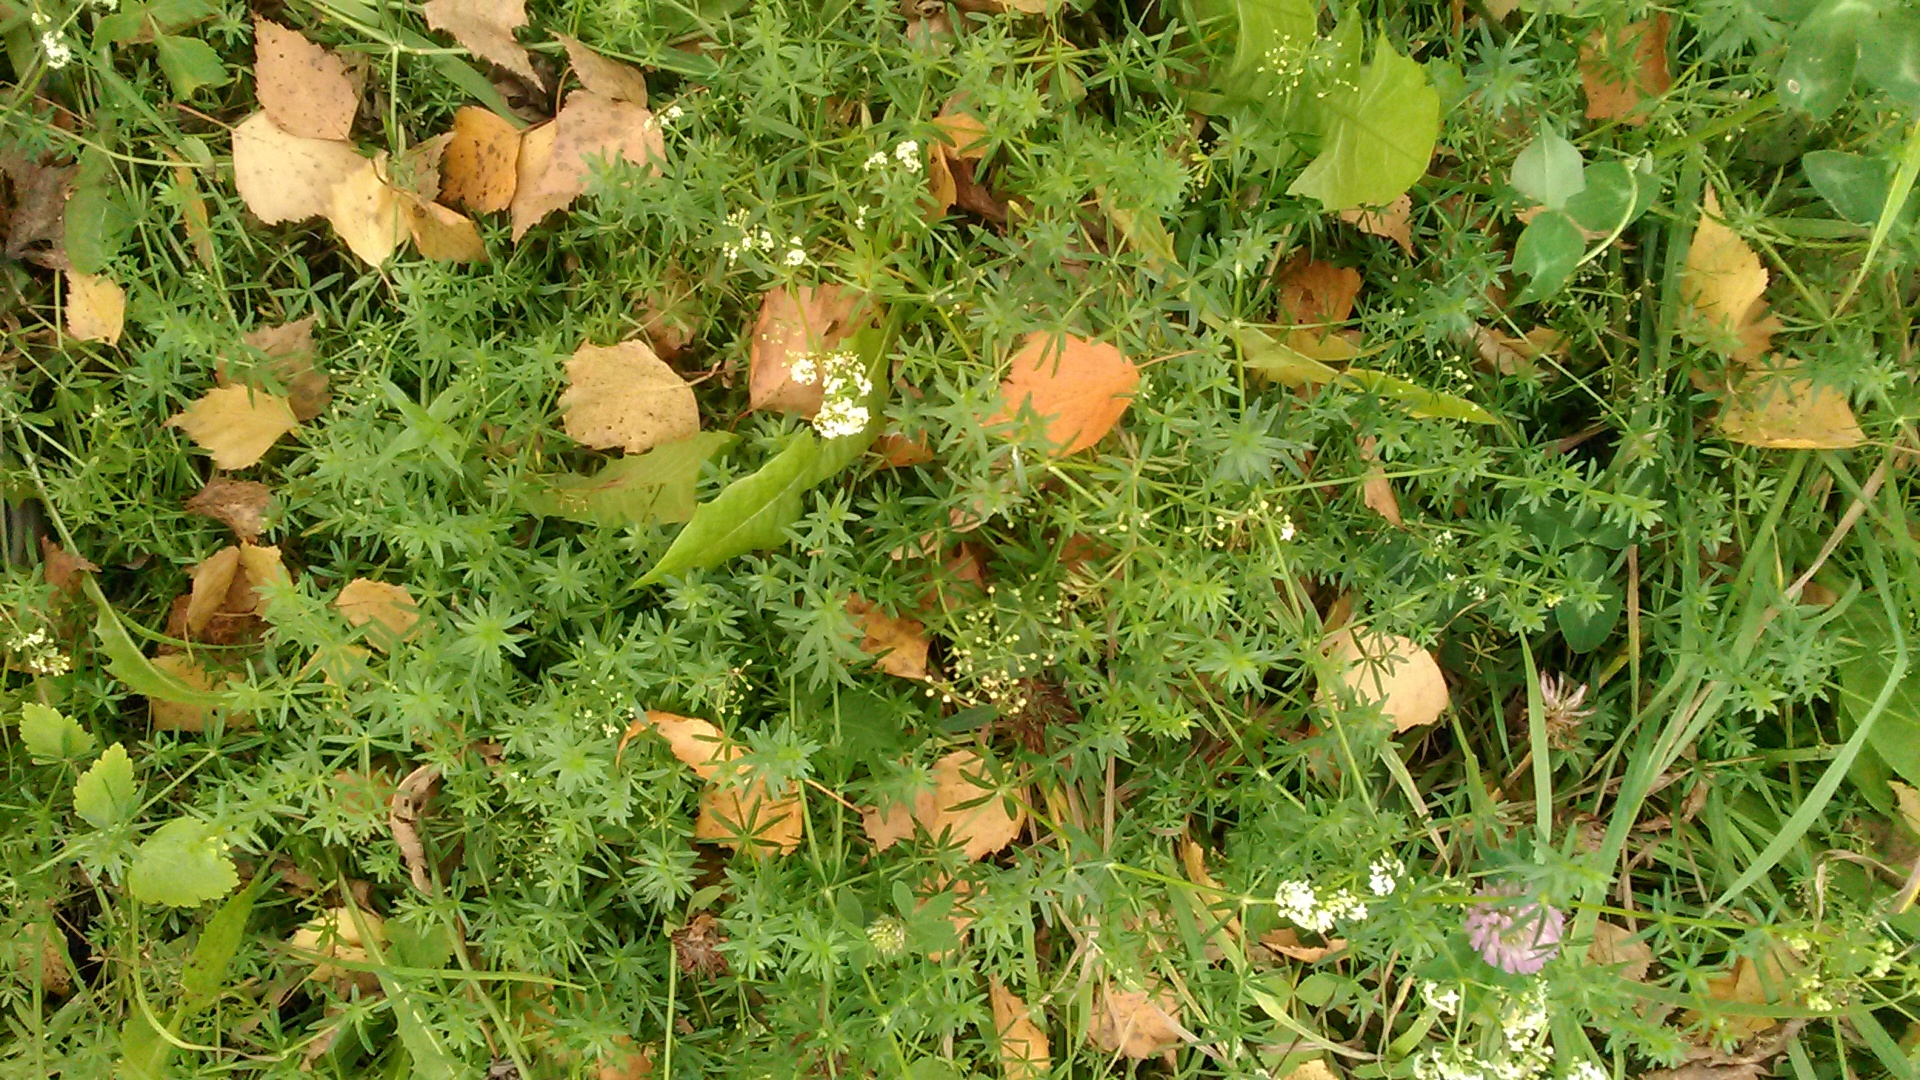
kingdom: Plantae
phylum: Tracheophyta
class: Magnoliopsida
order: Gentianales
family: Rubiaceae
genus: Galium
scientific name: Galium mollugo
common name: Hedge bedstraw
